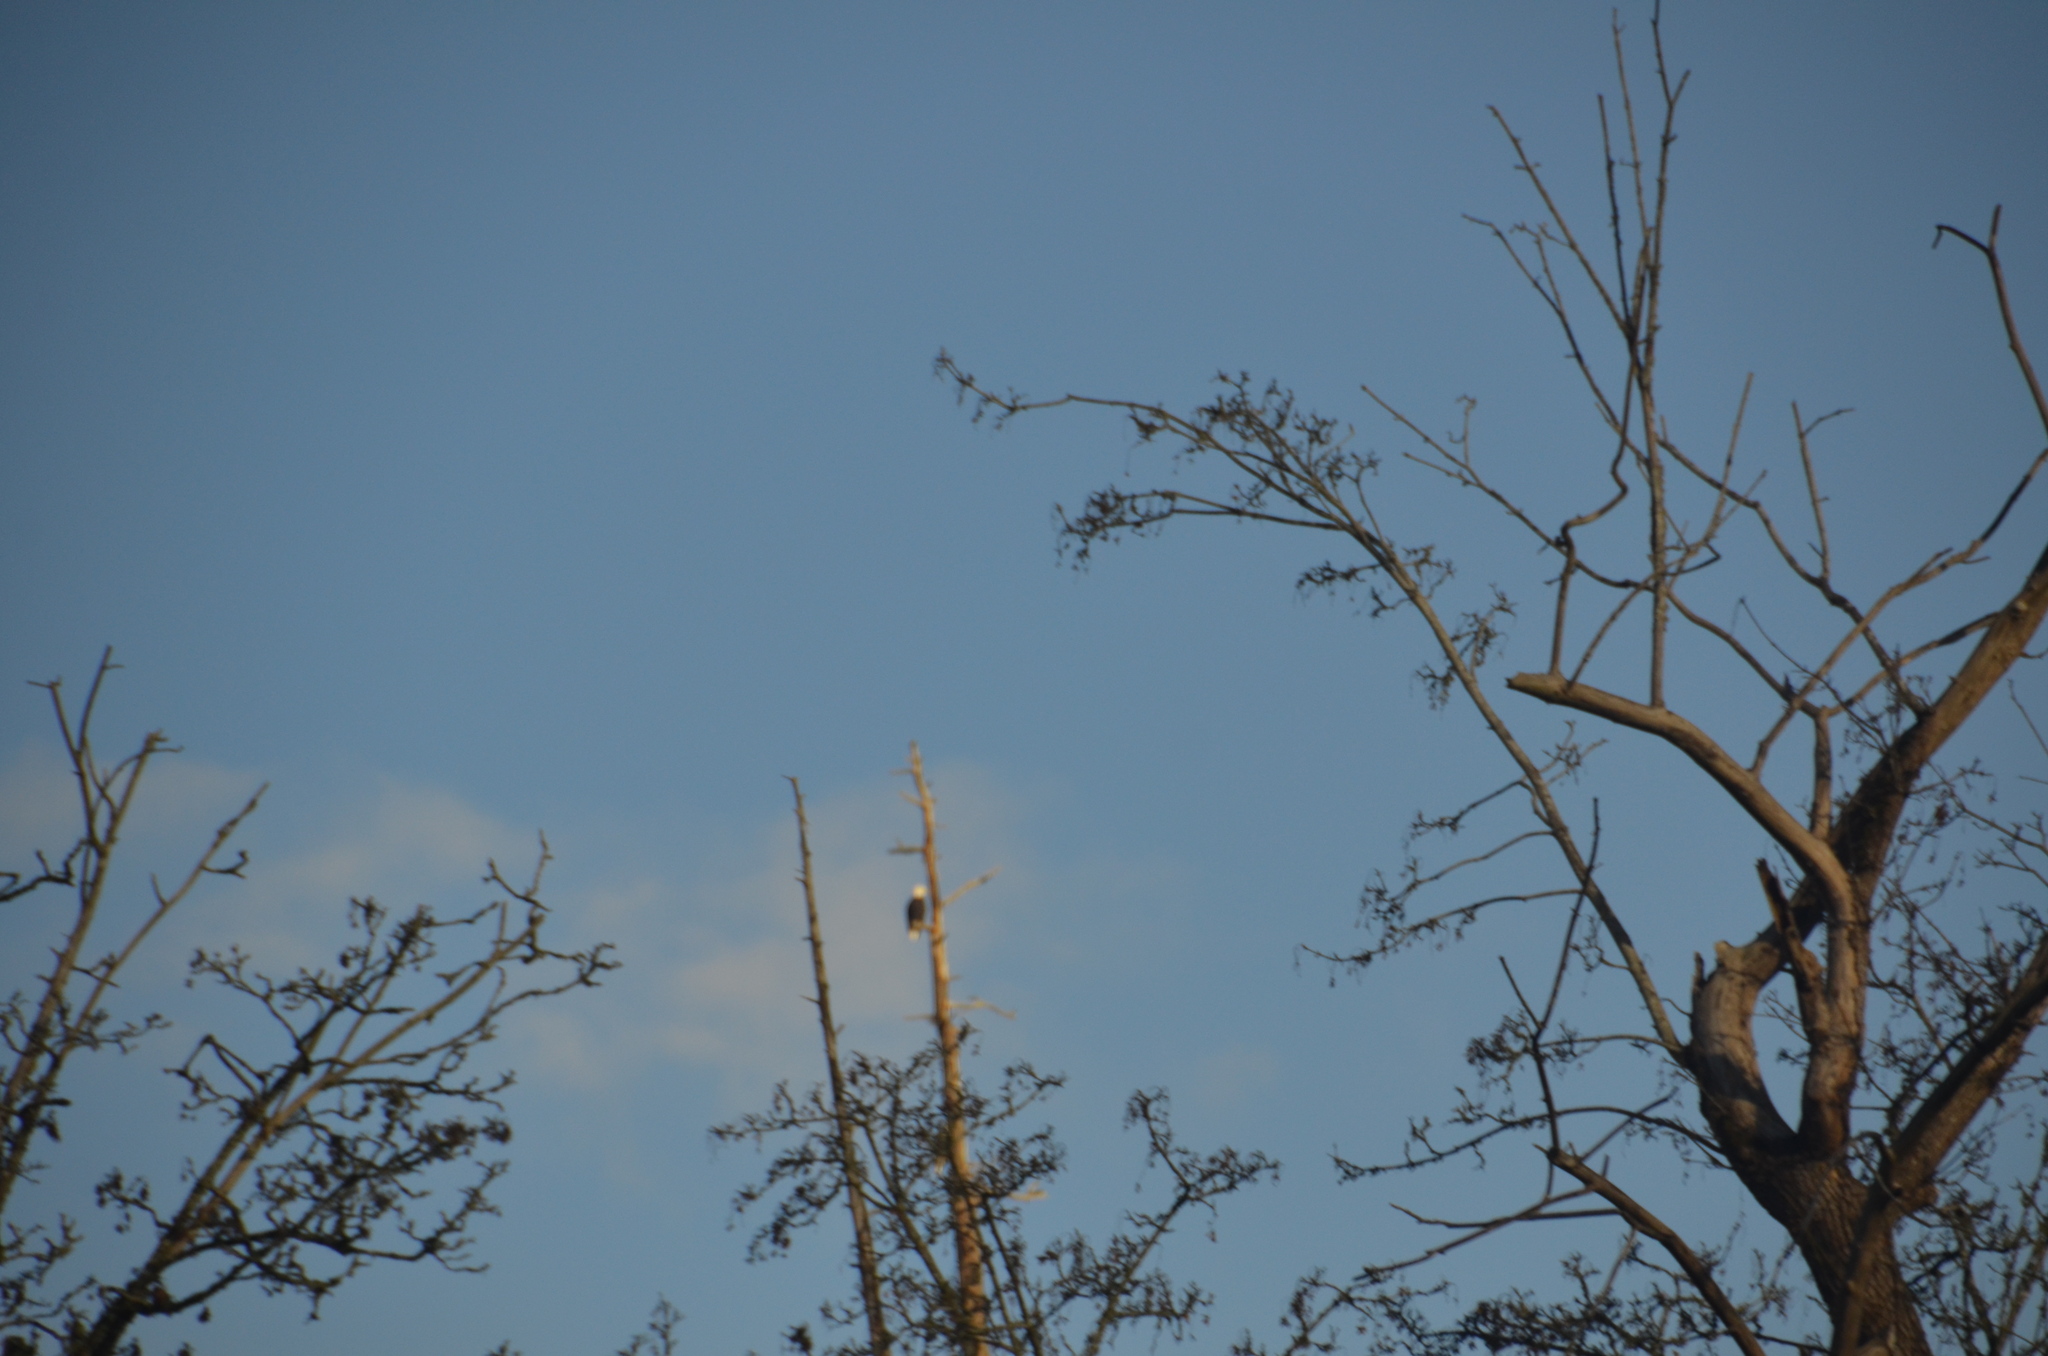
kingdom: Animalia
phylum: Chordata
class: Aves
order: Accipitriformes
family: Accipitridae
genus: Haliaeetus
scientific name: Haliaeetus leucocephalus
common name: Bald eagle
